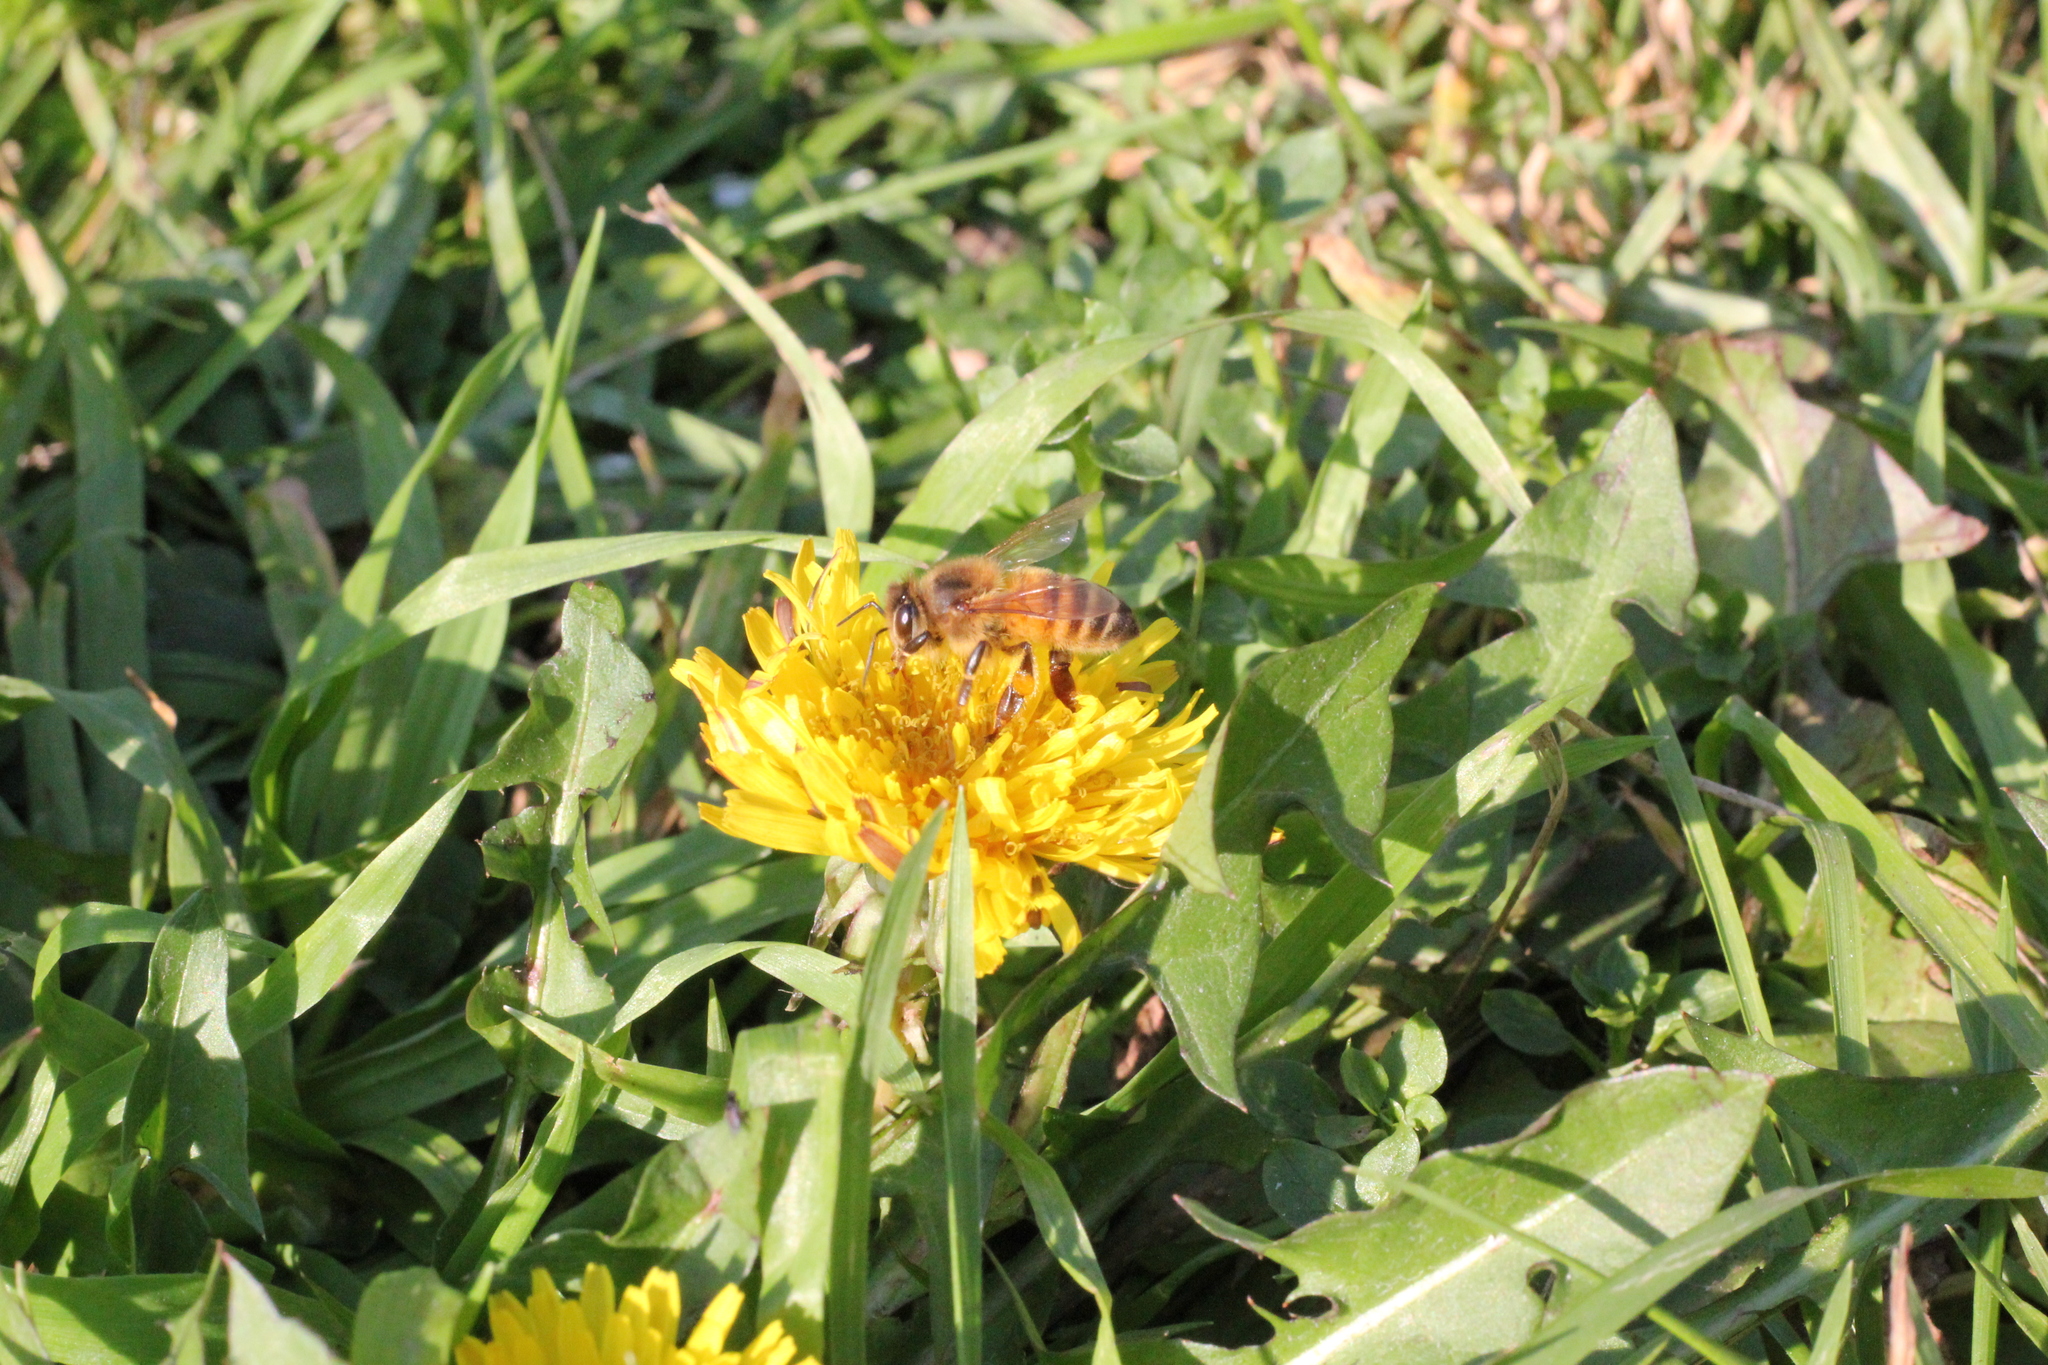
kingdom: Animalia
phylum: Arthropoda
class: Insecta
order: Hymenoptera
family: Apidae
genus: Apis
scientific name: Apis mellifera
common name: Honey bee
